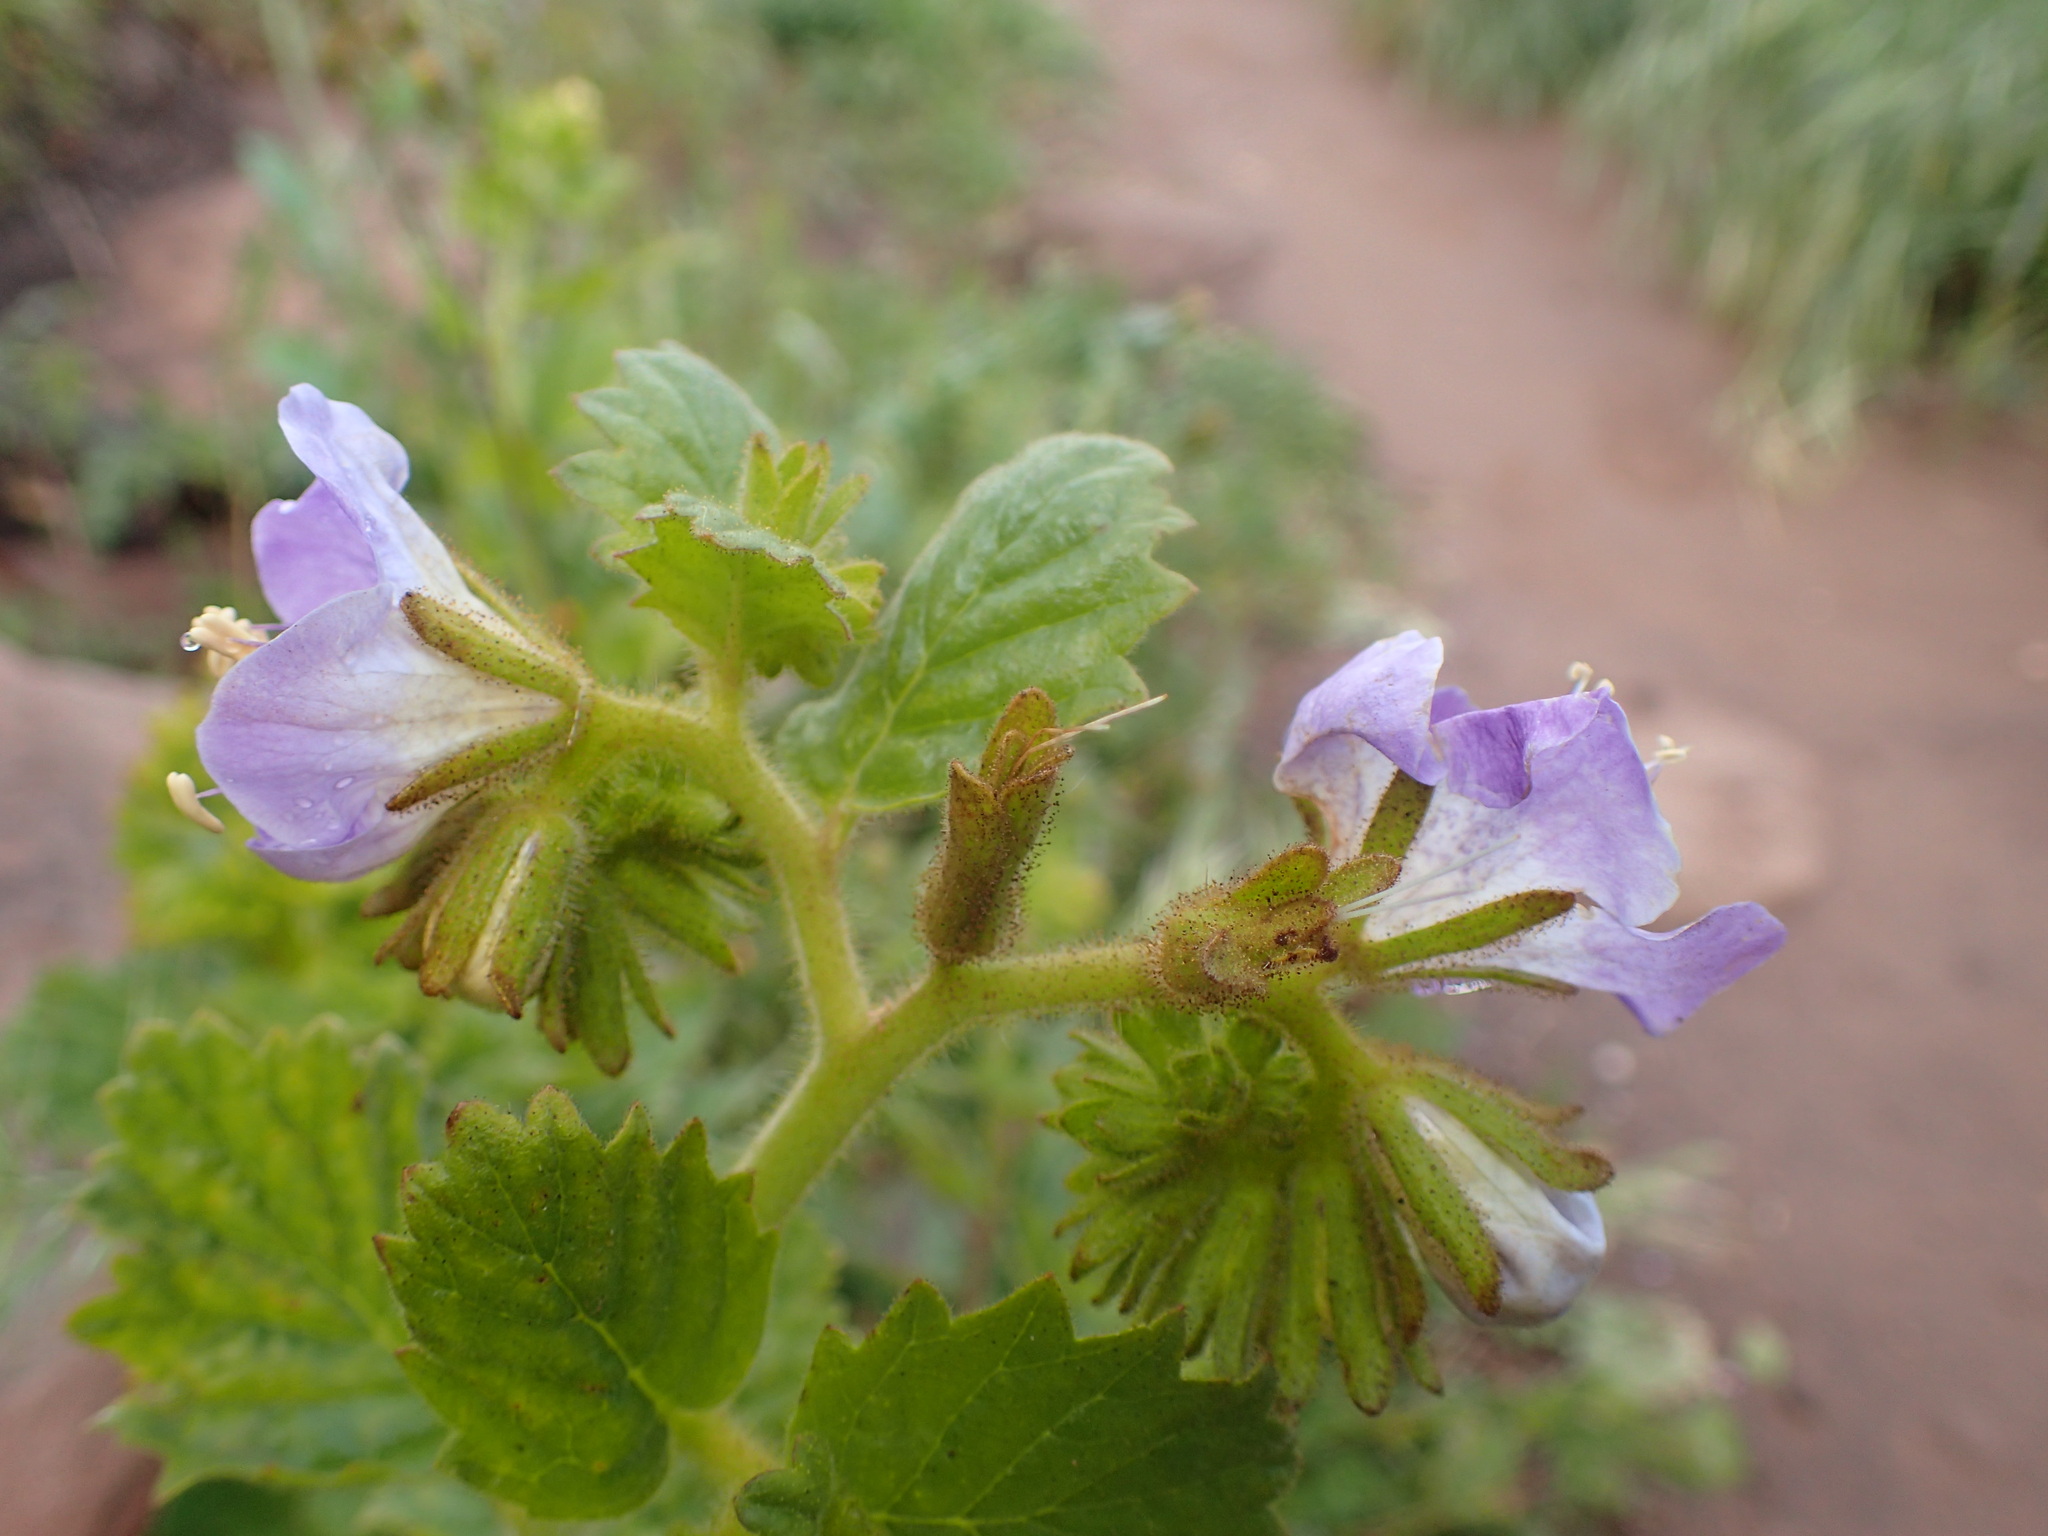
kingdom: Plantae
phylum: Tracheophyta
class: Magnoliopsida
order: Boraginales
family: Hydrophyllaceae
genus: Phacelia
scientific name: Phacelia grandiflora
